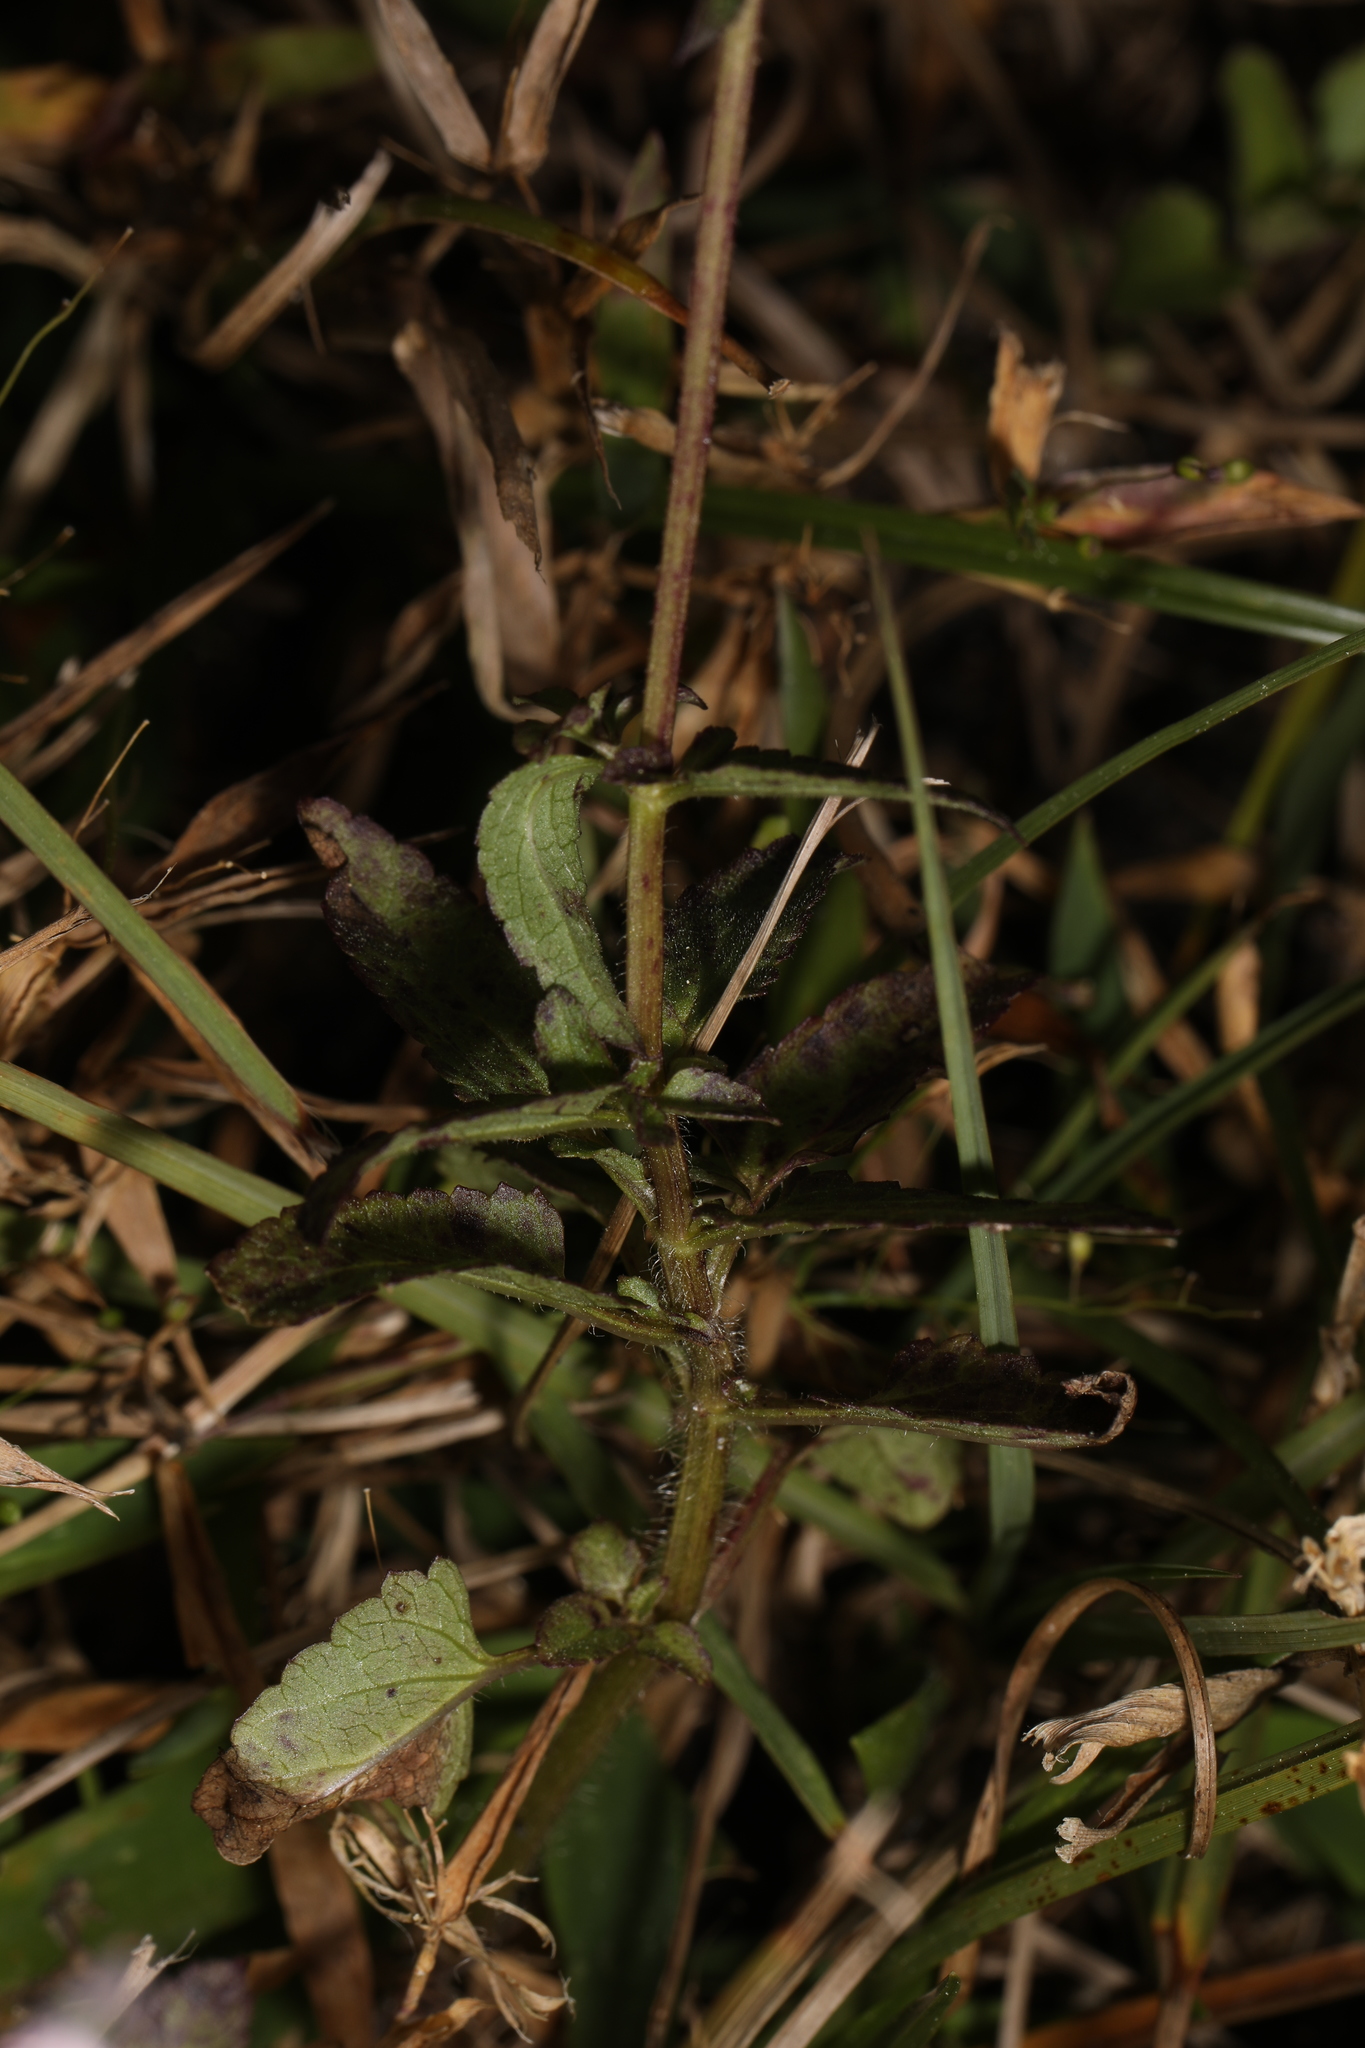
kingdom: Plantae
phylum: Tracheophyta
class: Magnoliopsida
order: Lamiales
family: Lamiaceae
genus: Stachys
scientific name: Stachys floridana
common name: Florida betony
